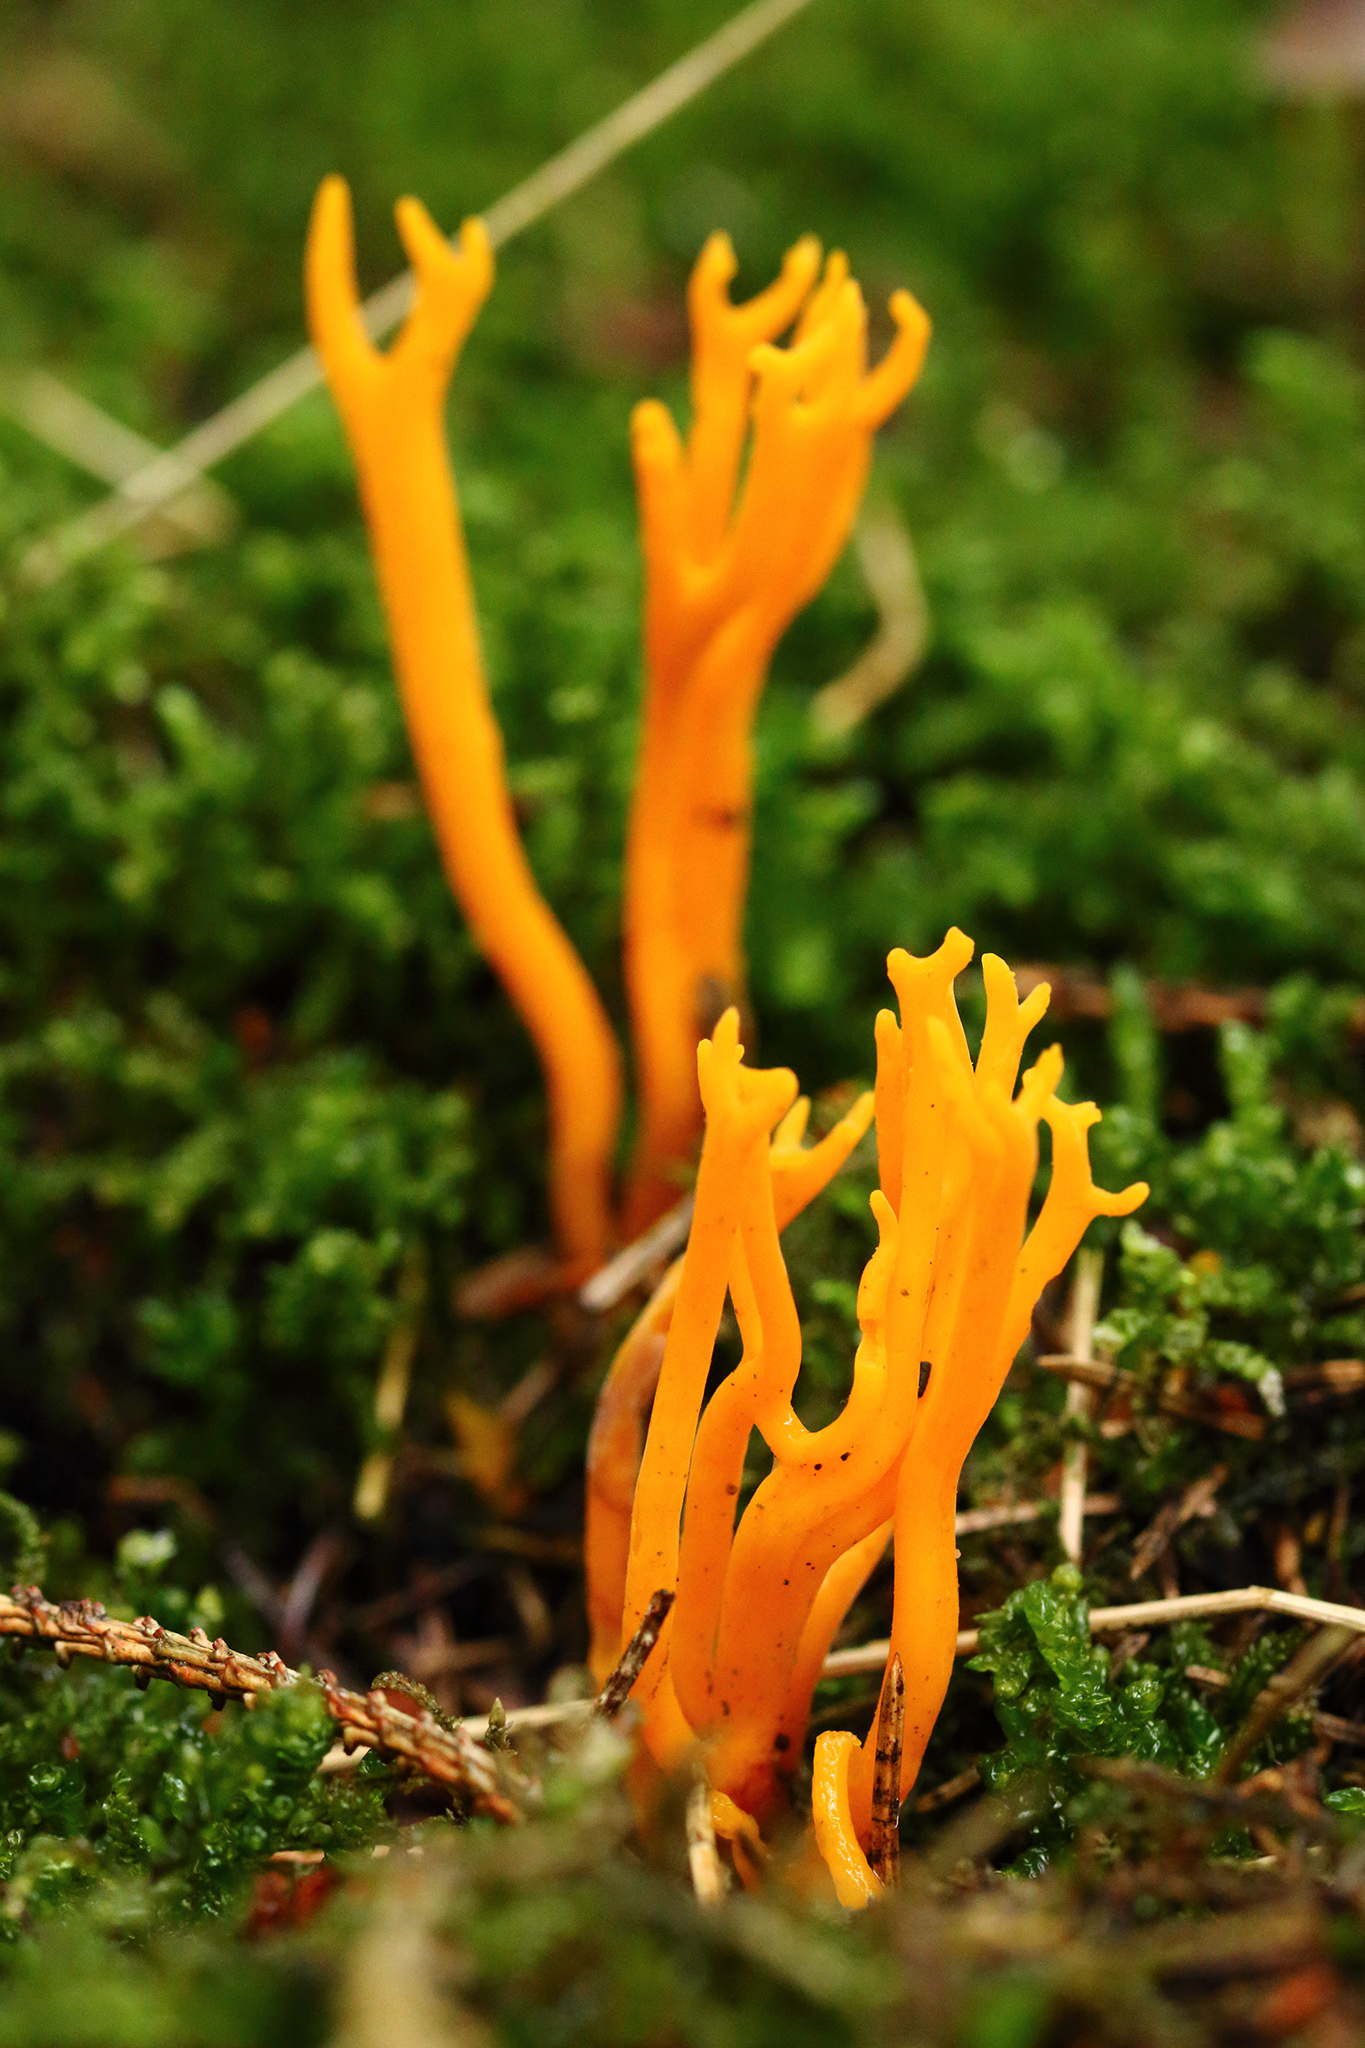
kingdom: Fungi
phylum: Basidiomycota
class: Dacrymycetes
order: Dacrymycetales
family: Dacrymycetaceae
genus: Calocera
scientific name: Calocera viscosa
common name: Yellow stagshorn
